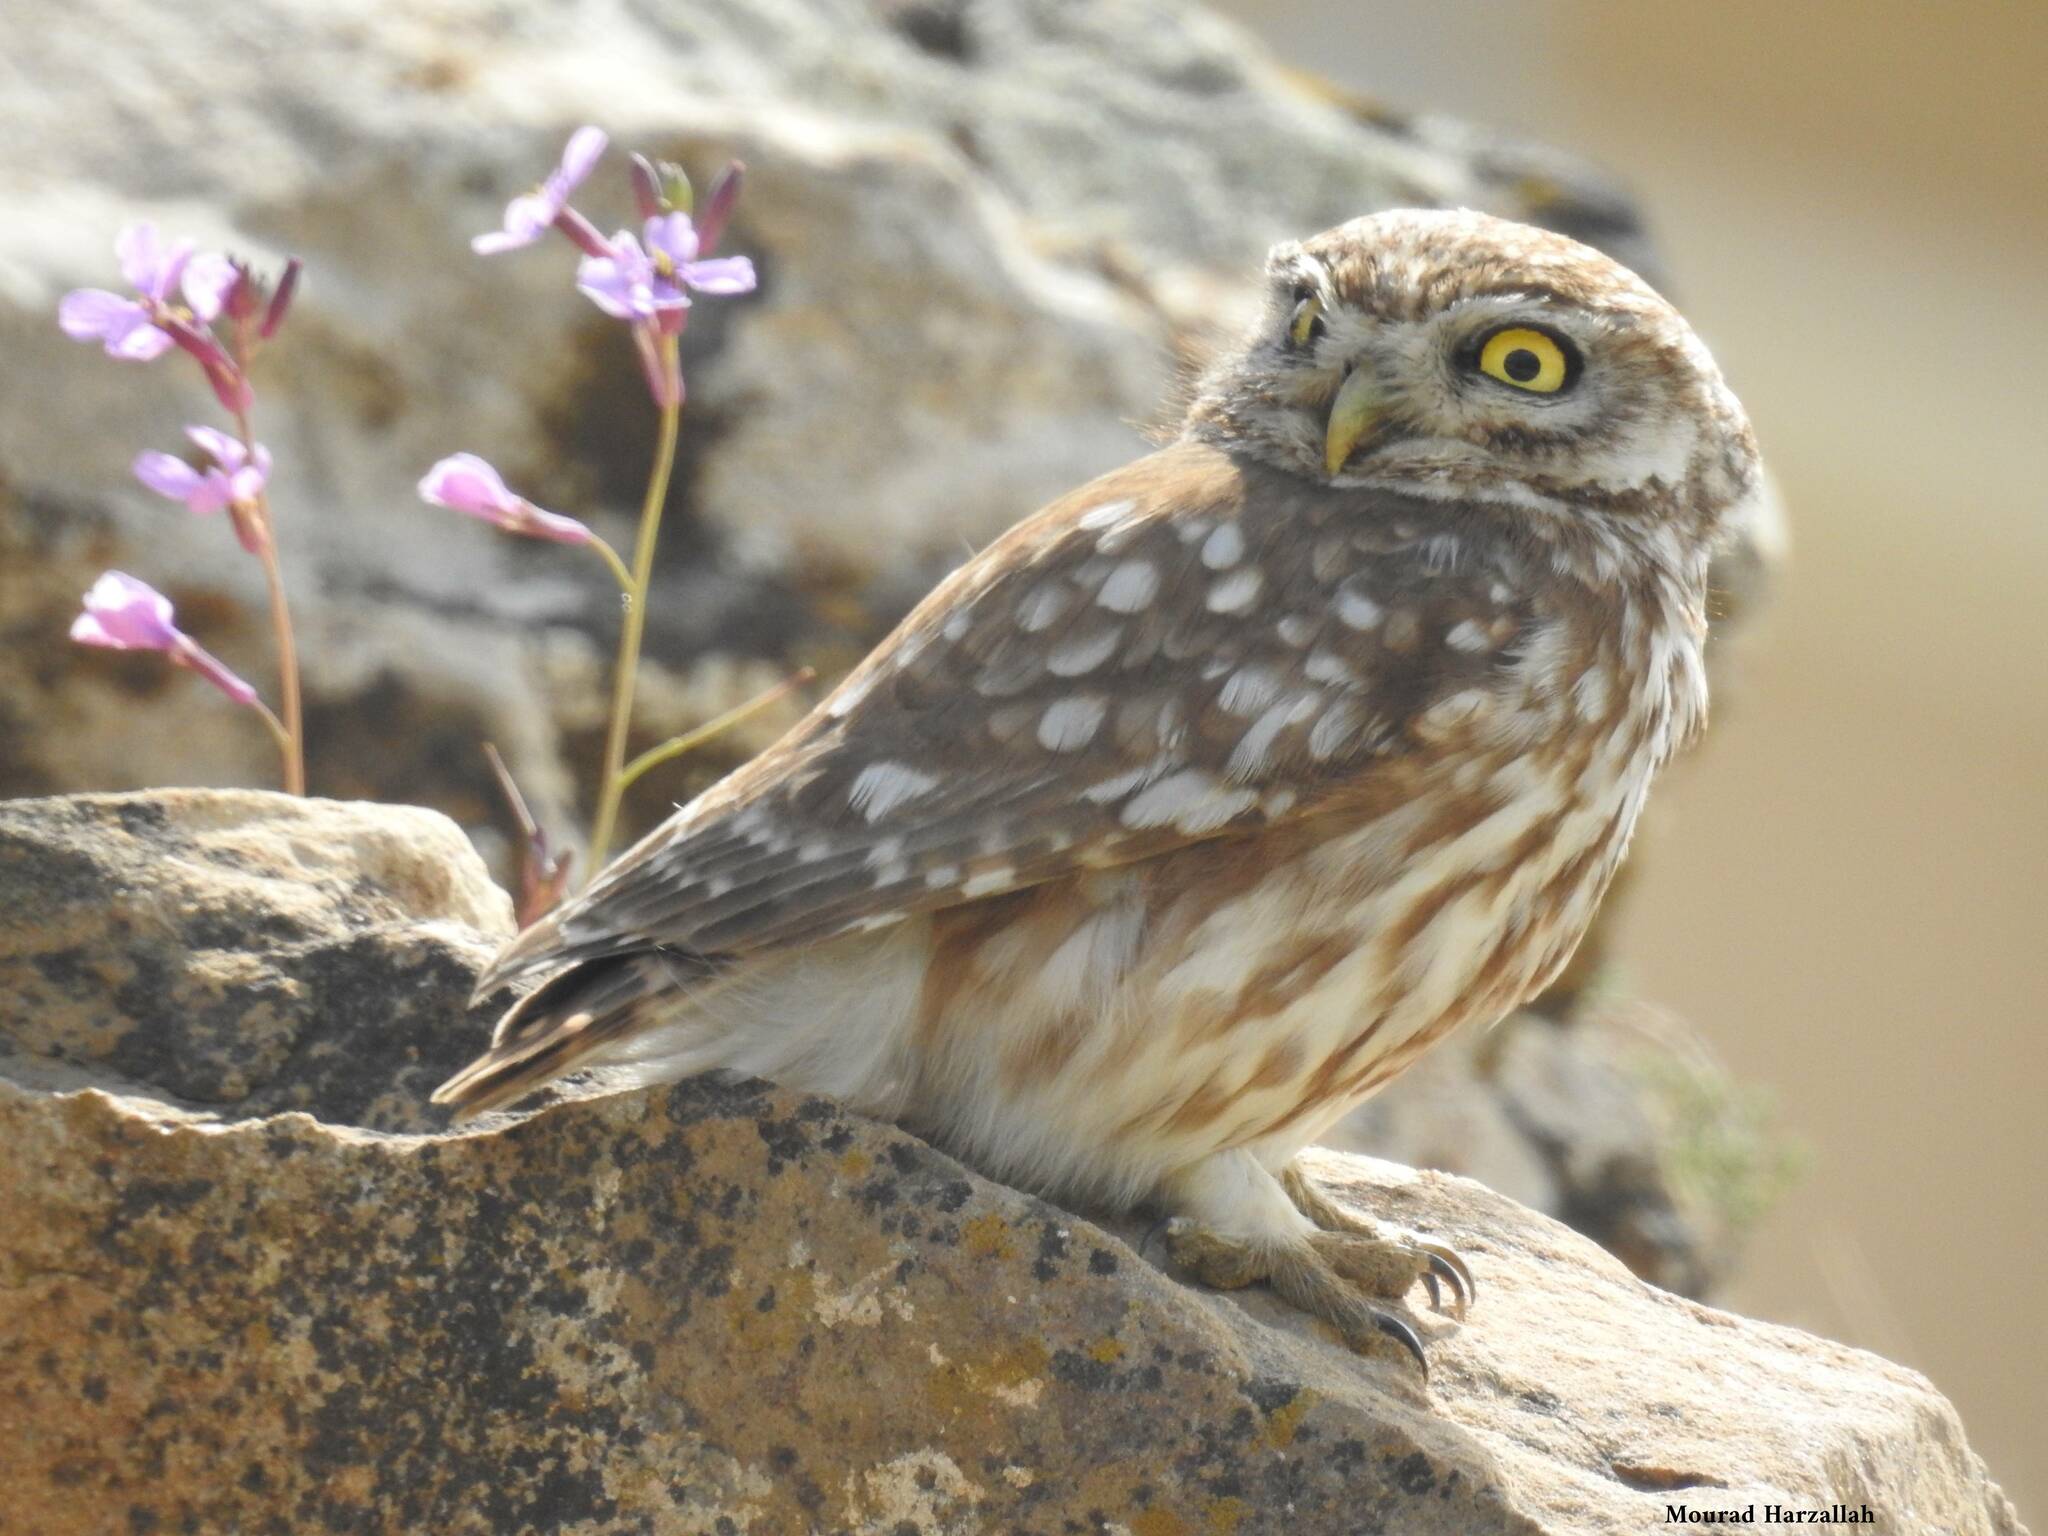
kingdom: Animalia
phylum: Chordata
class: Aves
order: Strigiformes
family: Strigidae
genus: Athene
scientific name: Athene noctua
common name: Little owl
